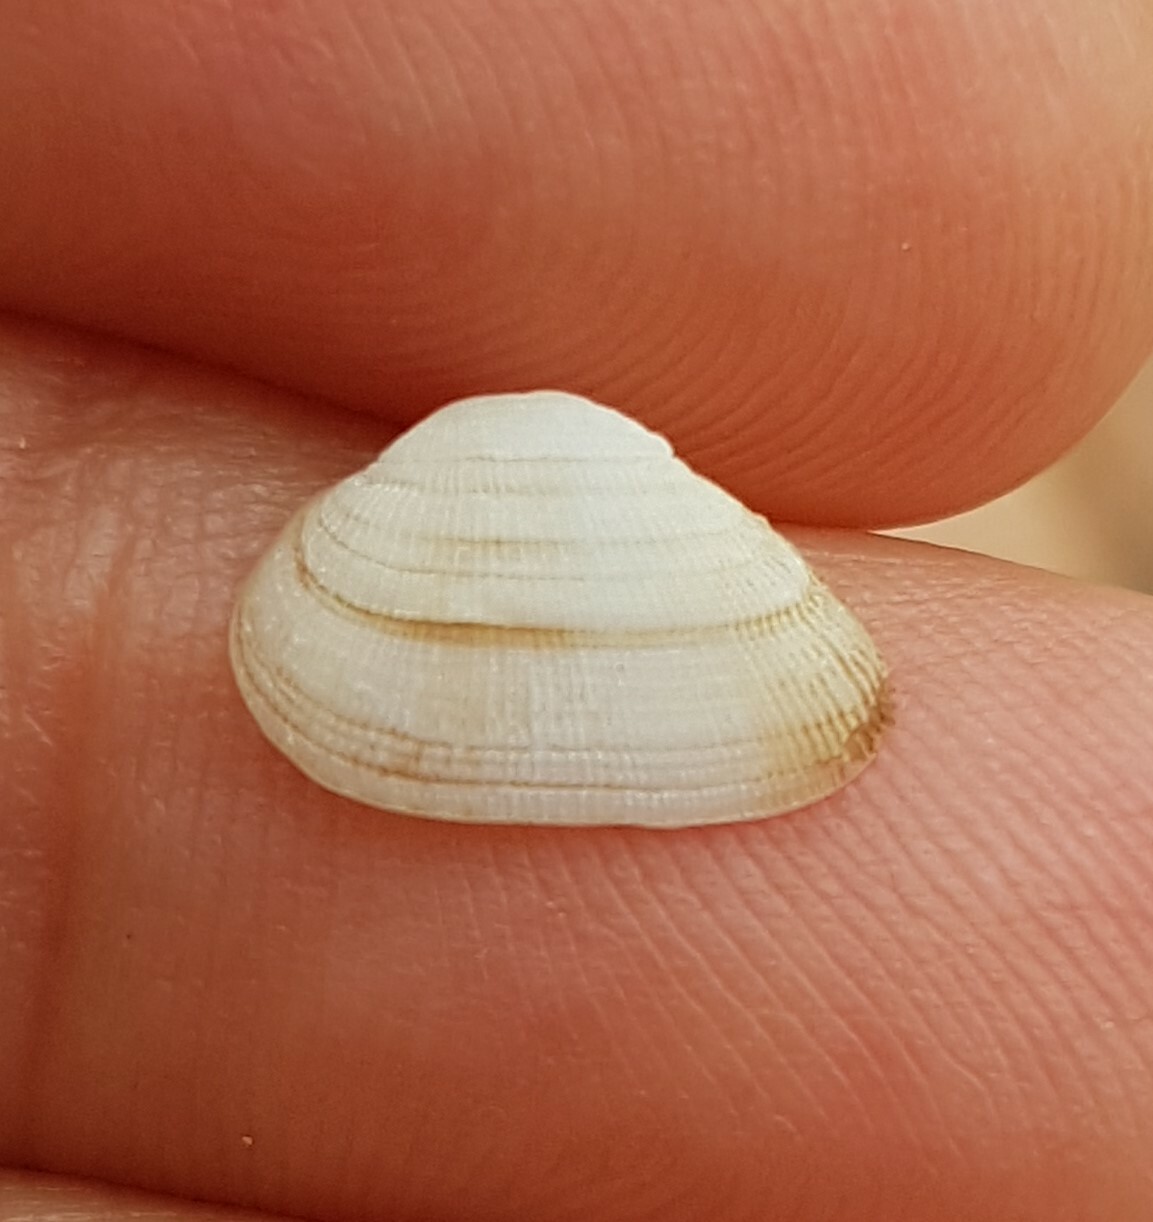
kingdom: Animalia
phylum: Mollusca
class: Bivalvia
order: Arcida
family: Noetiidae
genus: Striarca
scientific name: Striarca lactea
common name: Milky-white ark
